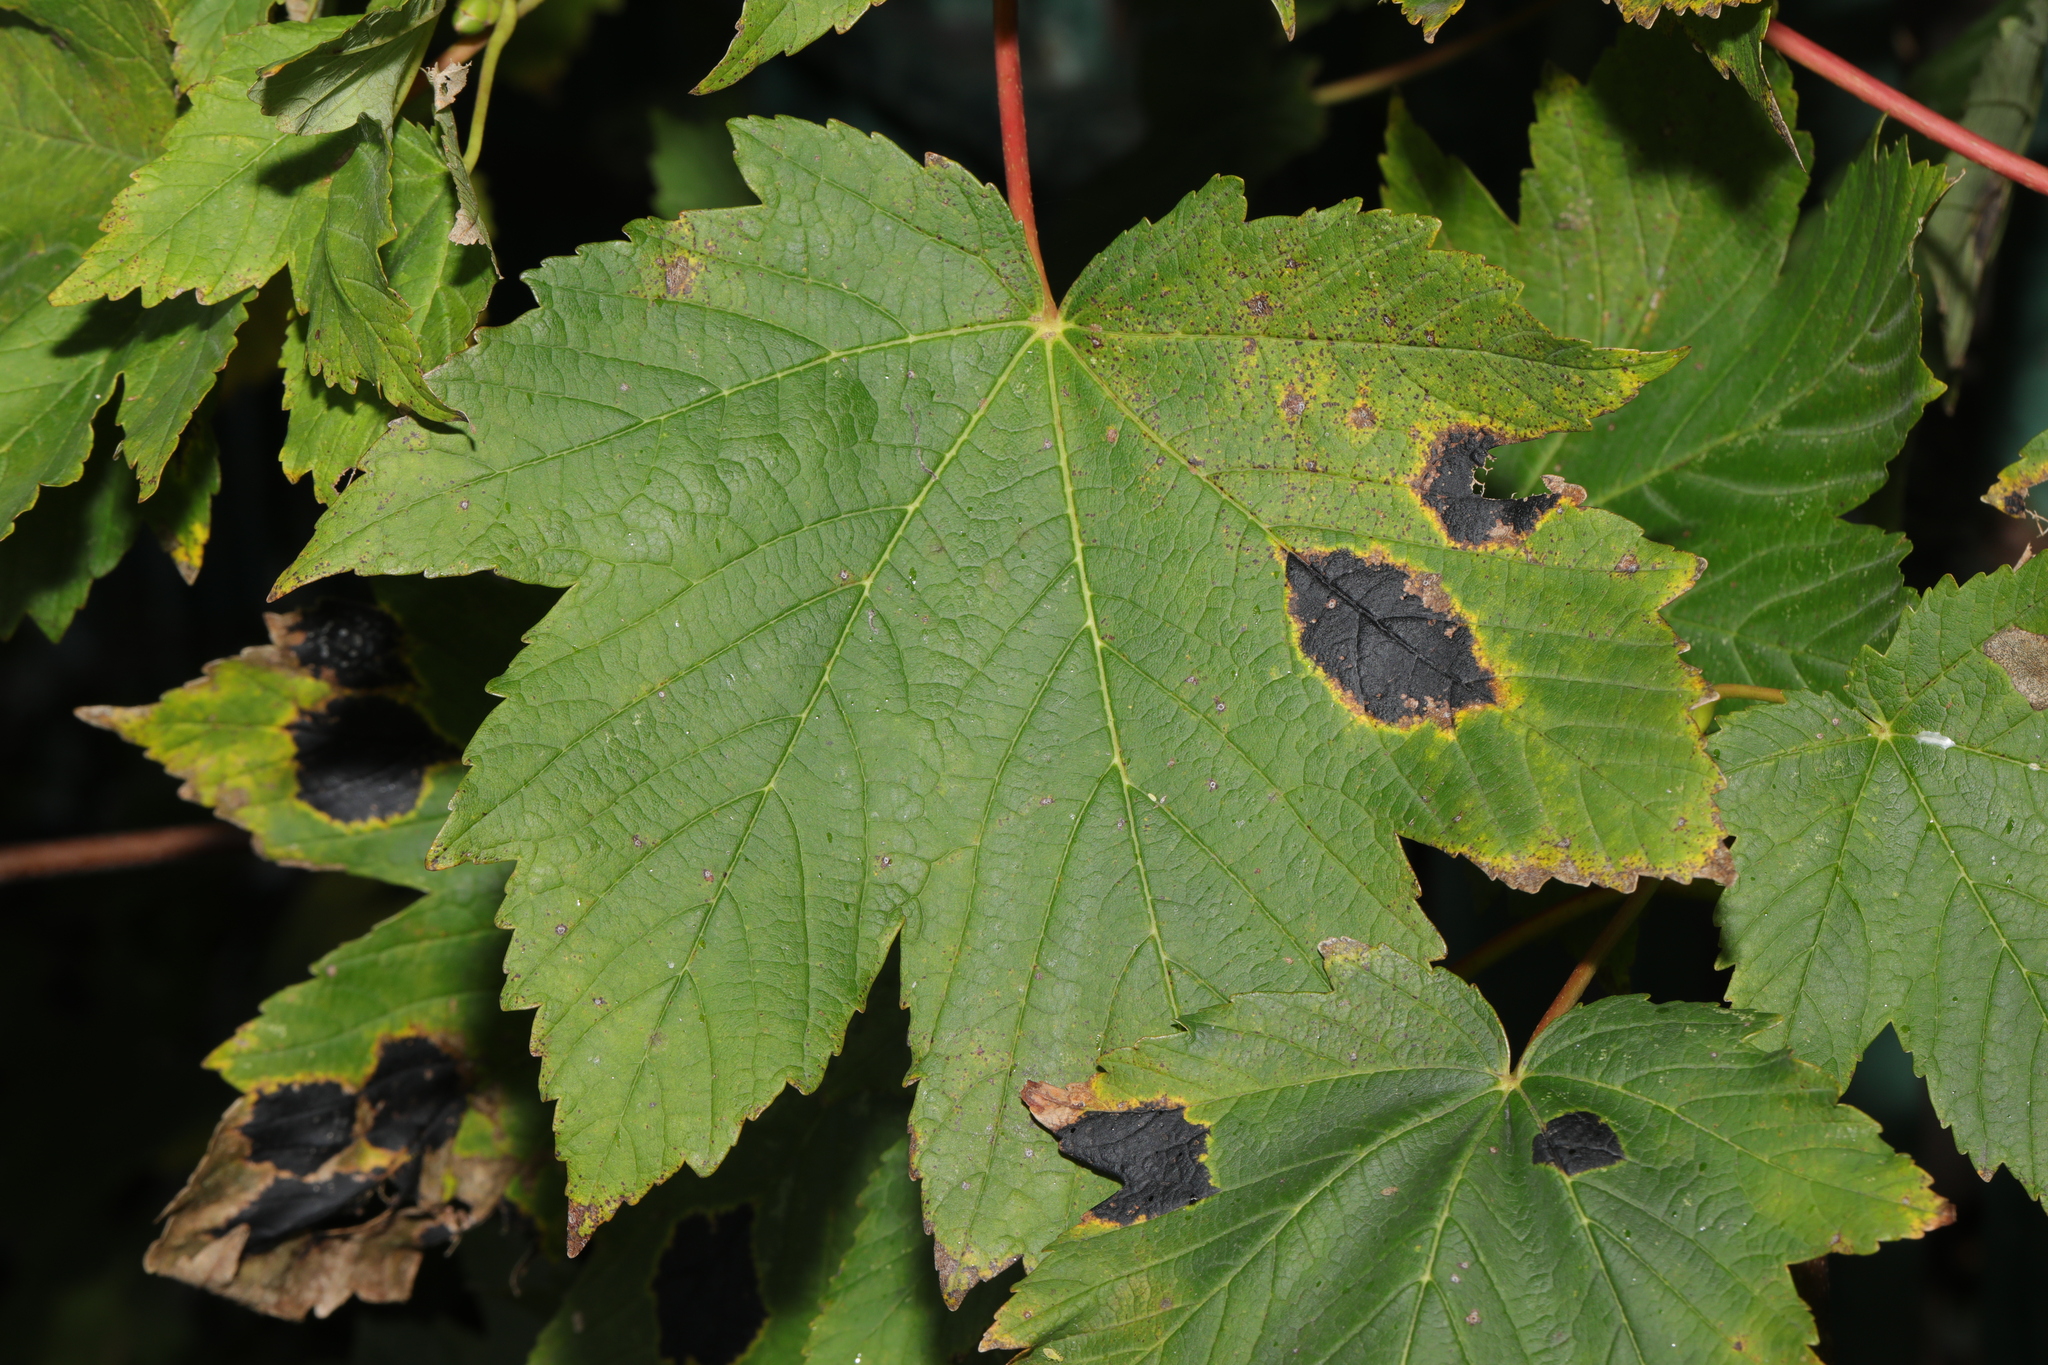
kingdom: Plantae
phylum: Tracheophyta
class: Magnoliopsida
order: Sapindales
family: Sapindaceae
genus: Acer
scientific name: Acer pseudoplatanus
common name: Sycamore
